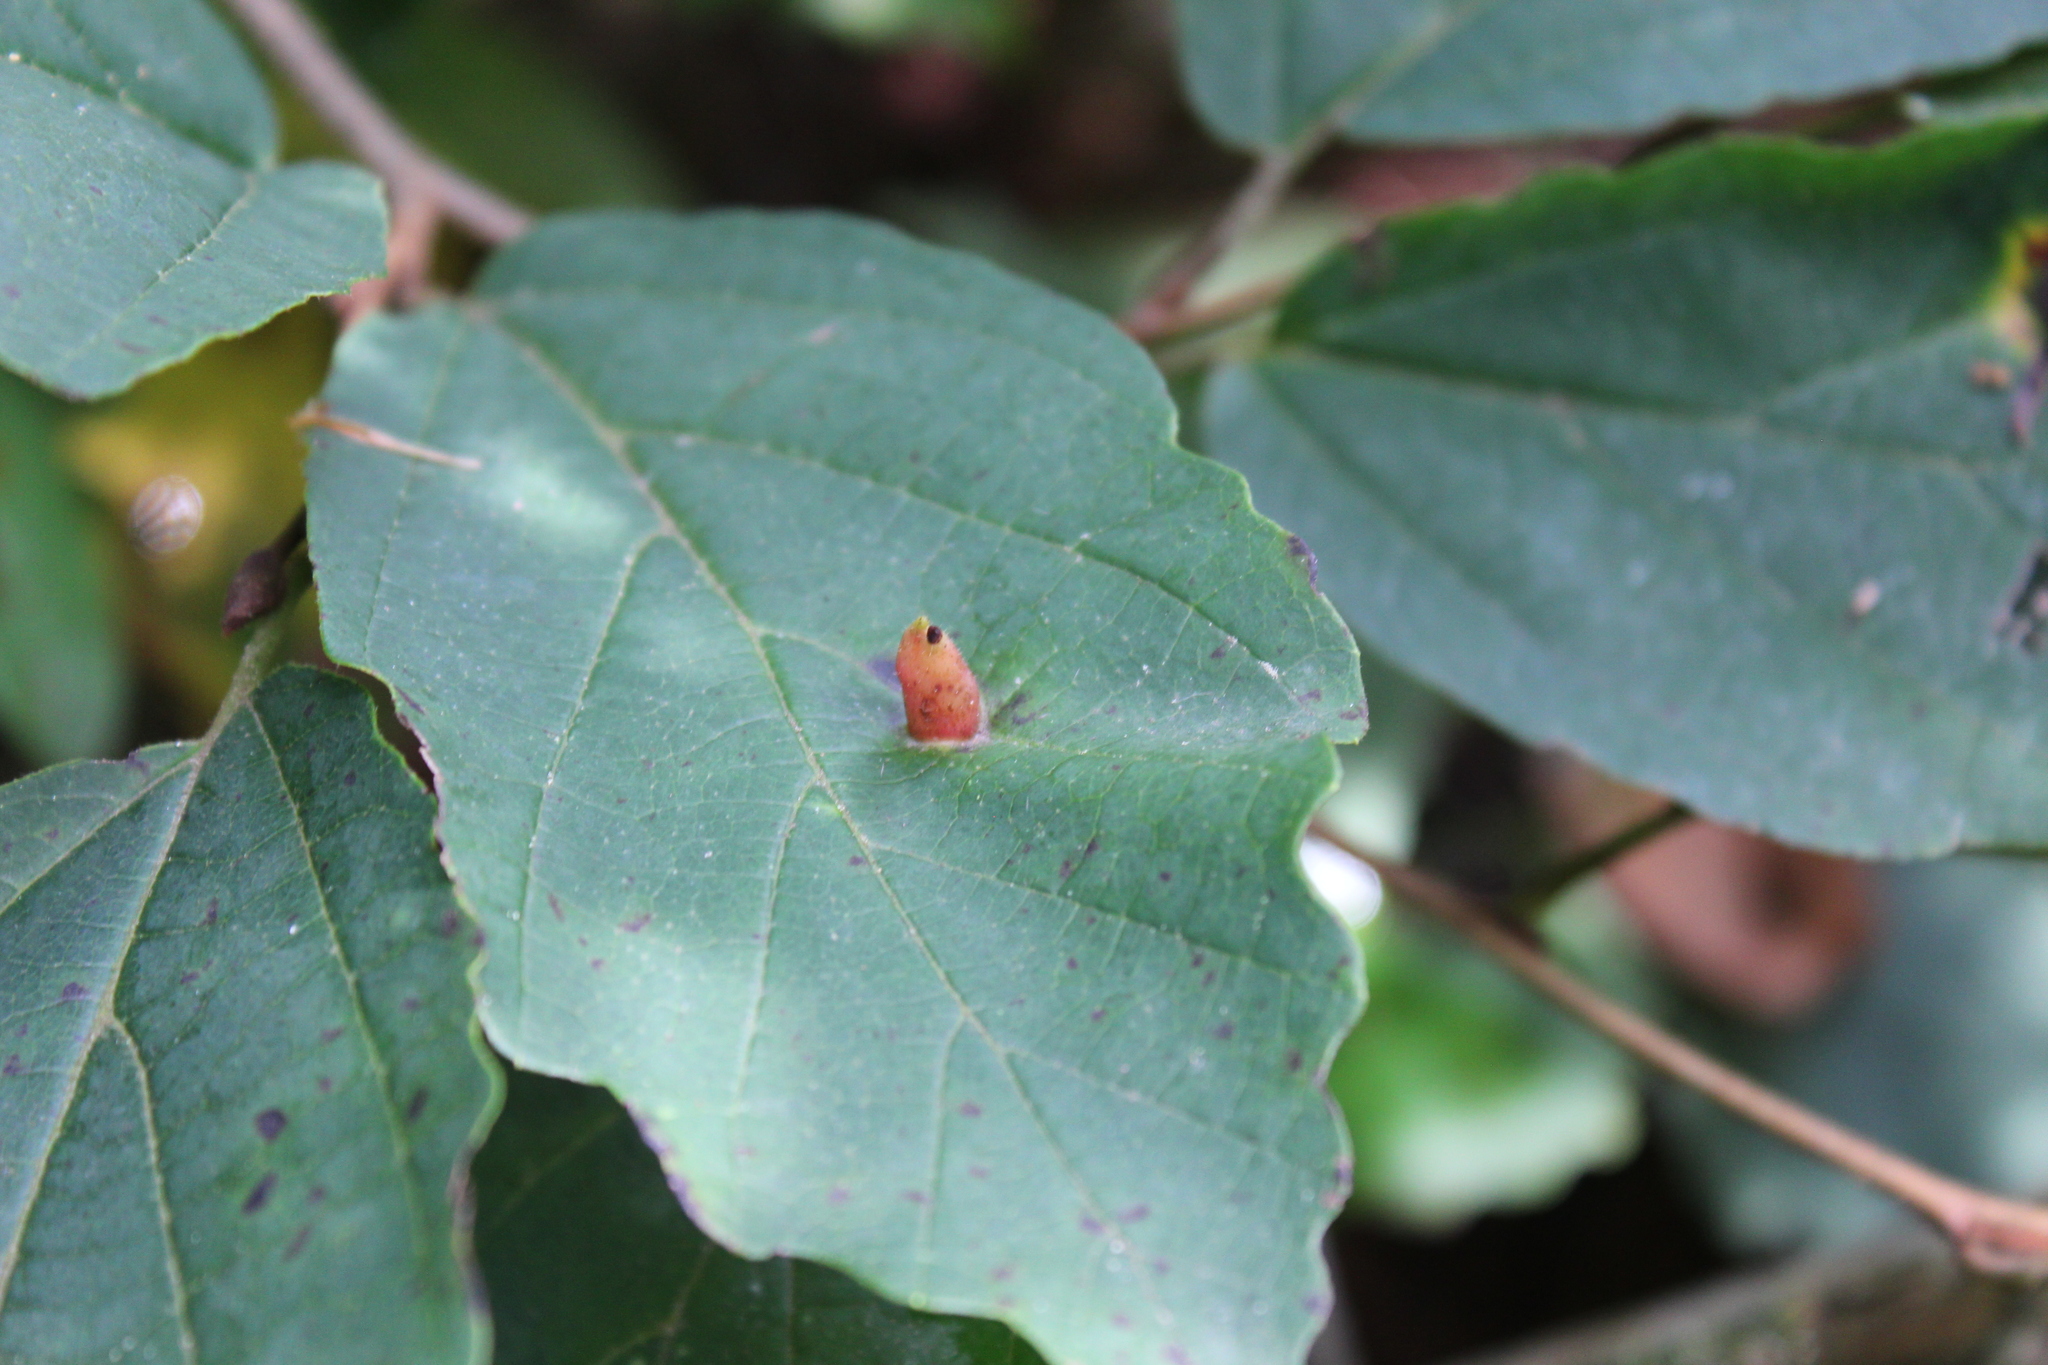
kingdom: Animalia
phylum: Arthropoda
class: Insecta
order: Hemiptera
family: Aphididae
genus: Hormaphis
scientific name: Hormaphis hamamelidis
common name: Witch-hazel cone gall aphid
